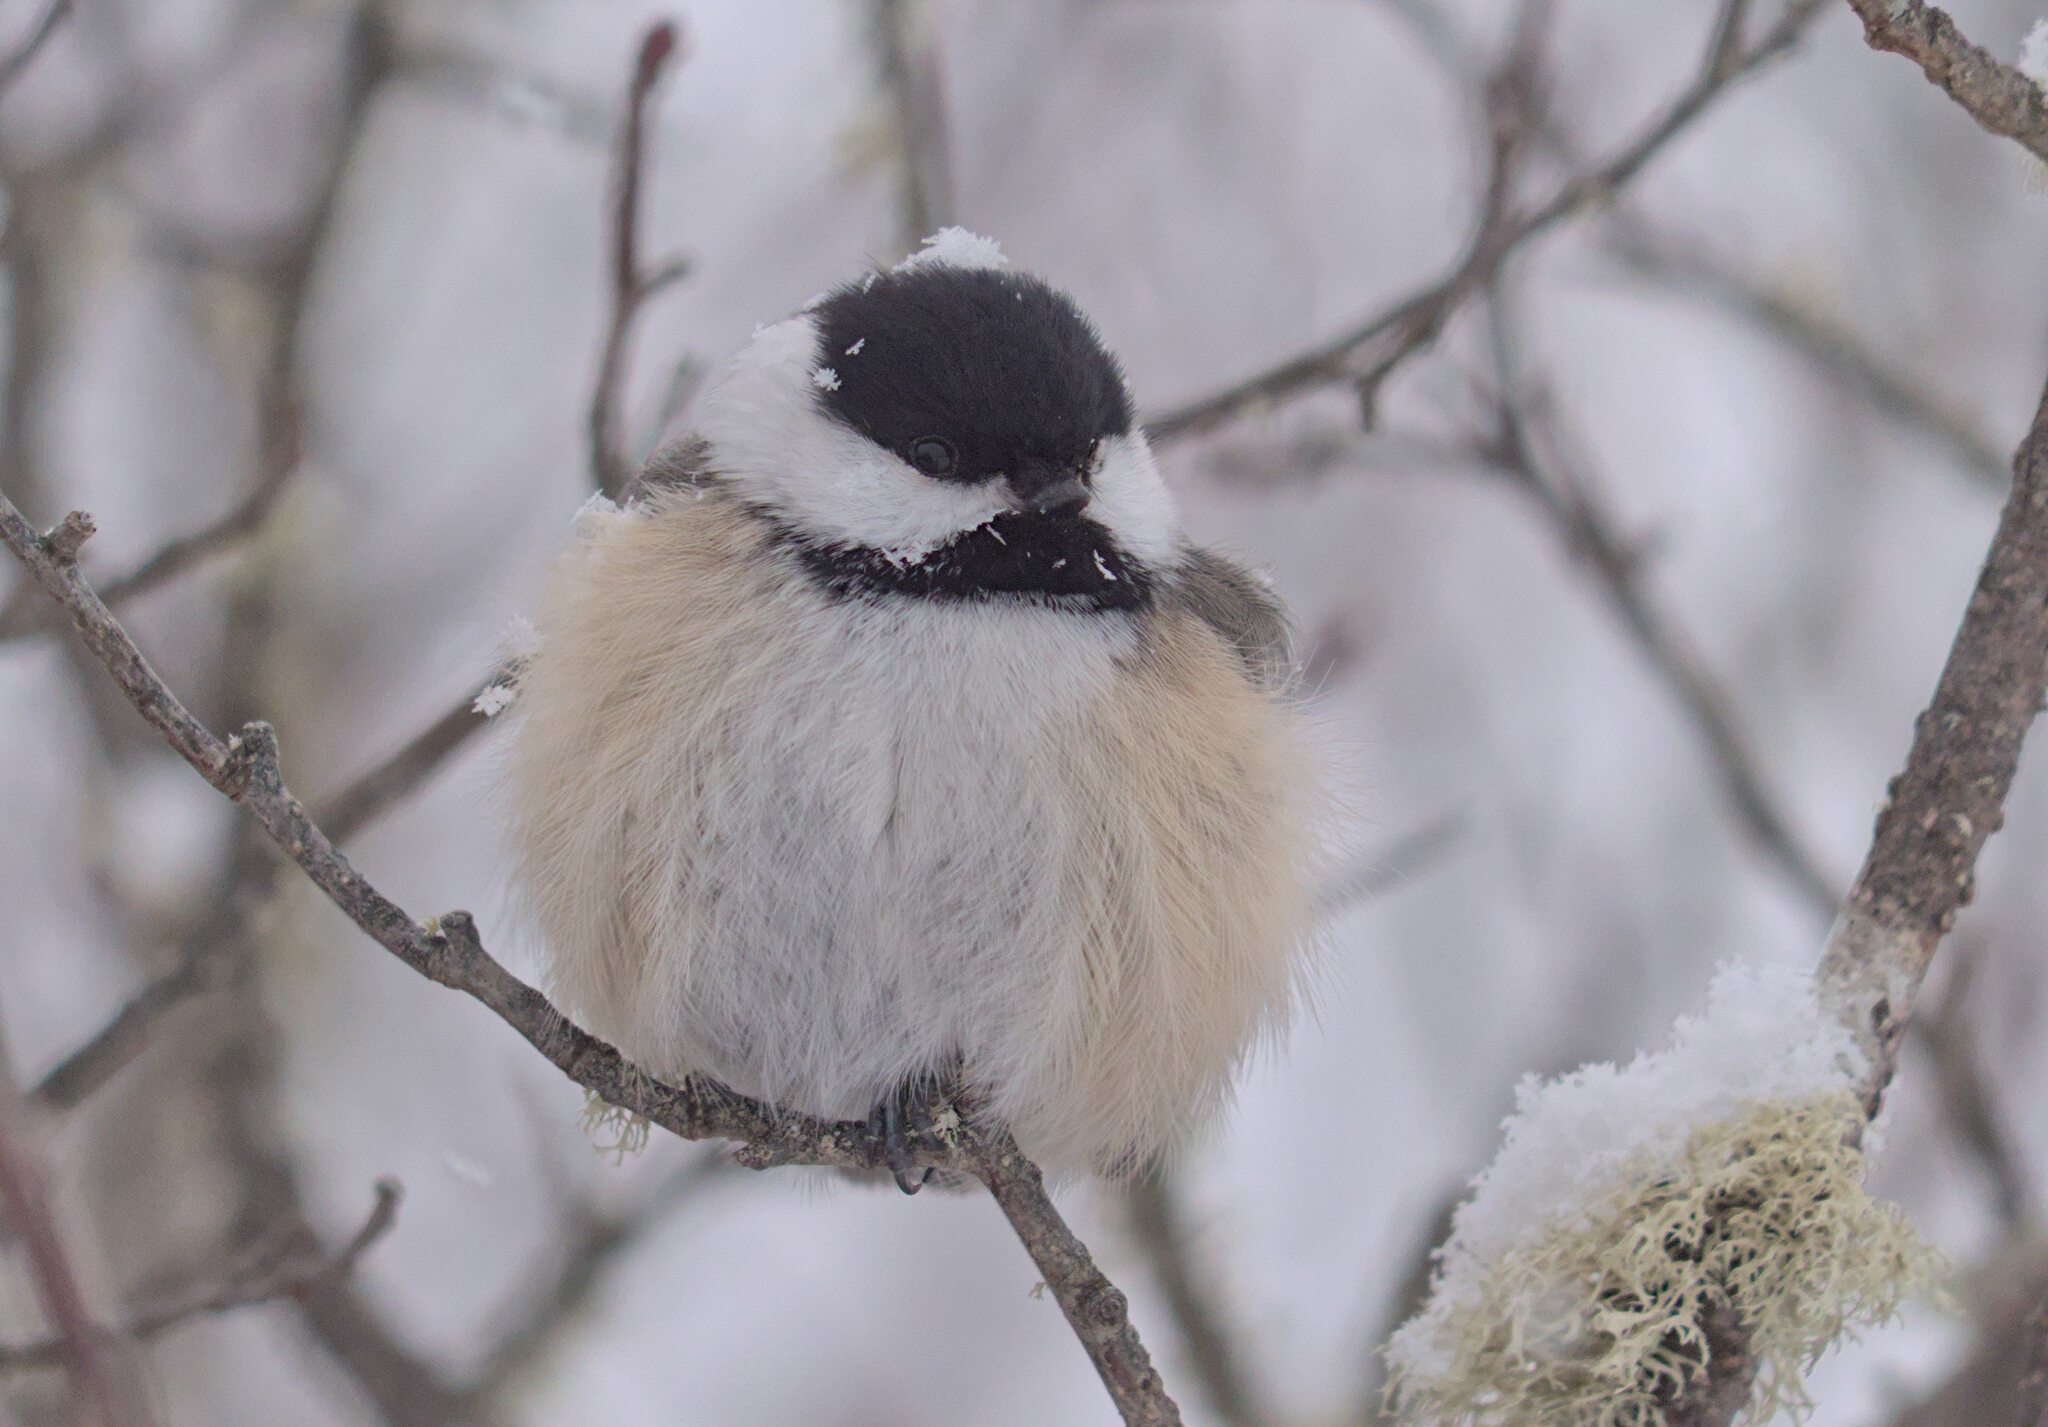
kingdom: Animalia
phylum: Chordata
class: Aves
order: Passeriformes
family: Paridae
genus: Poecile
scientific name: Poecile atricapillus
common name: Black-capped chickadee
